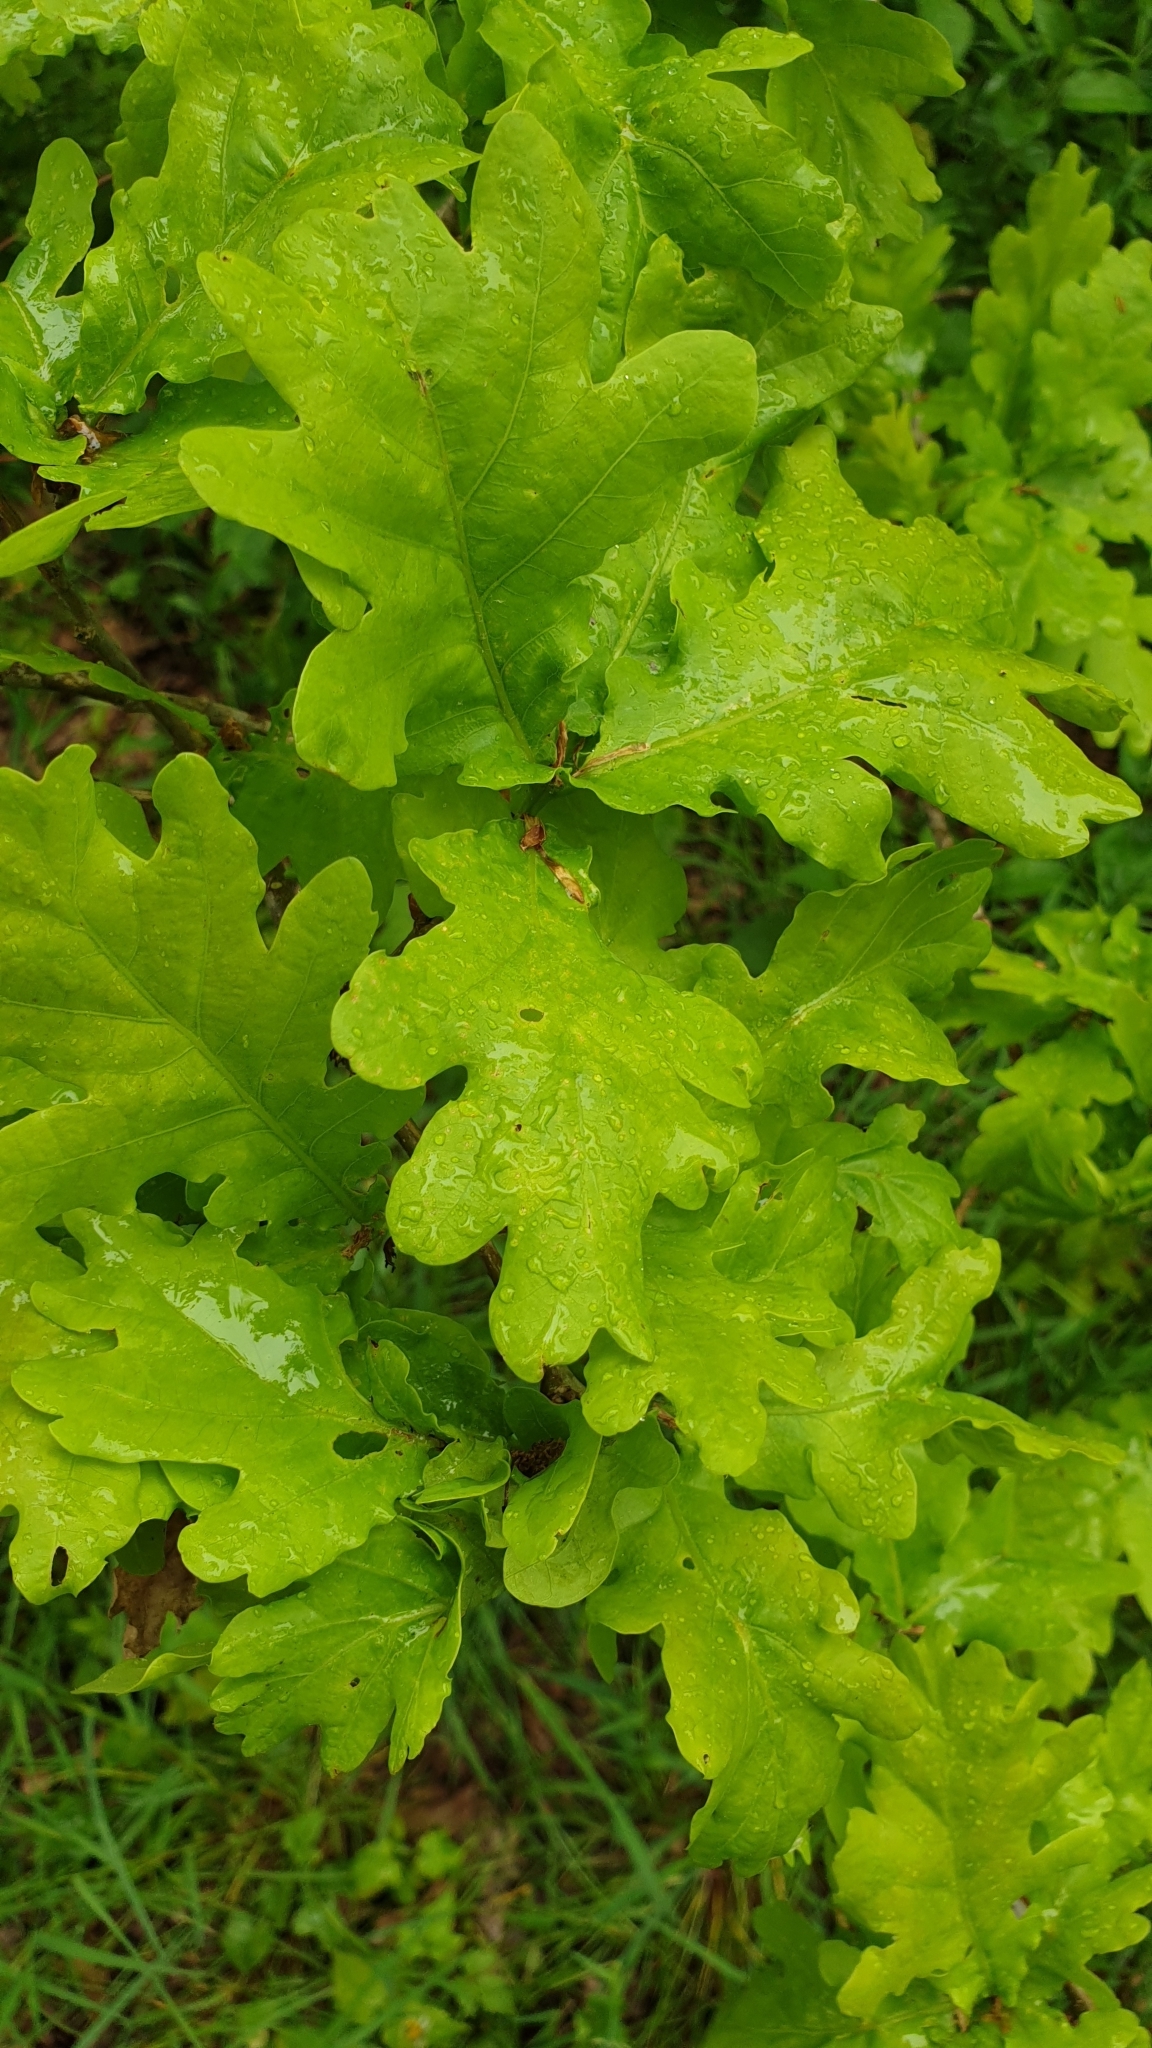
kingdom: Plantae
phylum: Tracheophyta
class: Magnoliopsida
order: Fagales
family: Fagaceae
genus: Quercus
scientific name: Quercus robur
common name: Pedunculate oak
